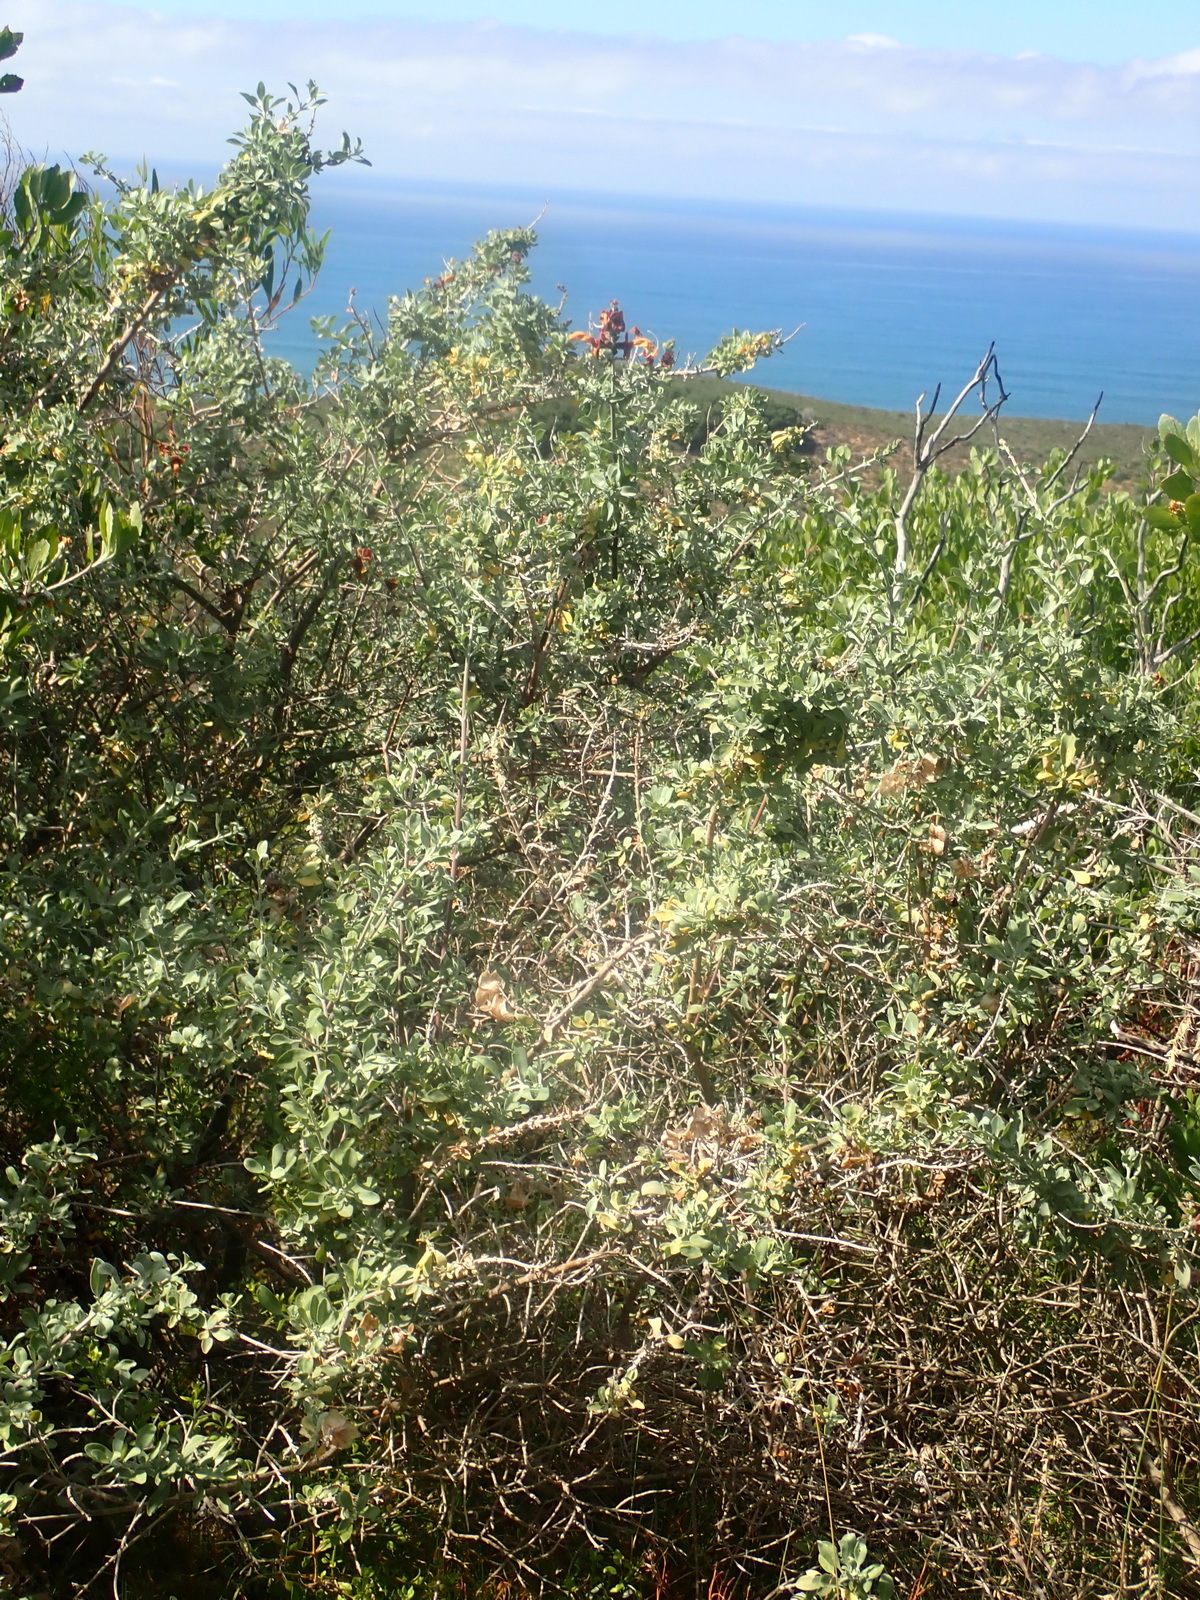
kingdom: Plantae
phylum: Tracheophyta
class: Magnoliopsida
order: Lamiales
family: Lamiaceae
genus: Salvia
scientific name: Salvia aurea
